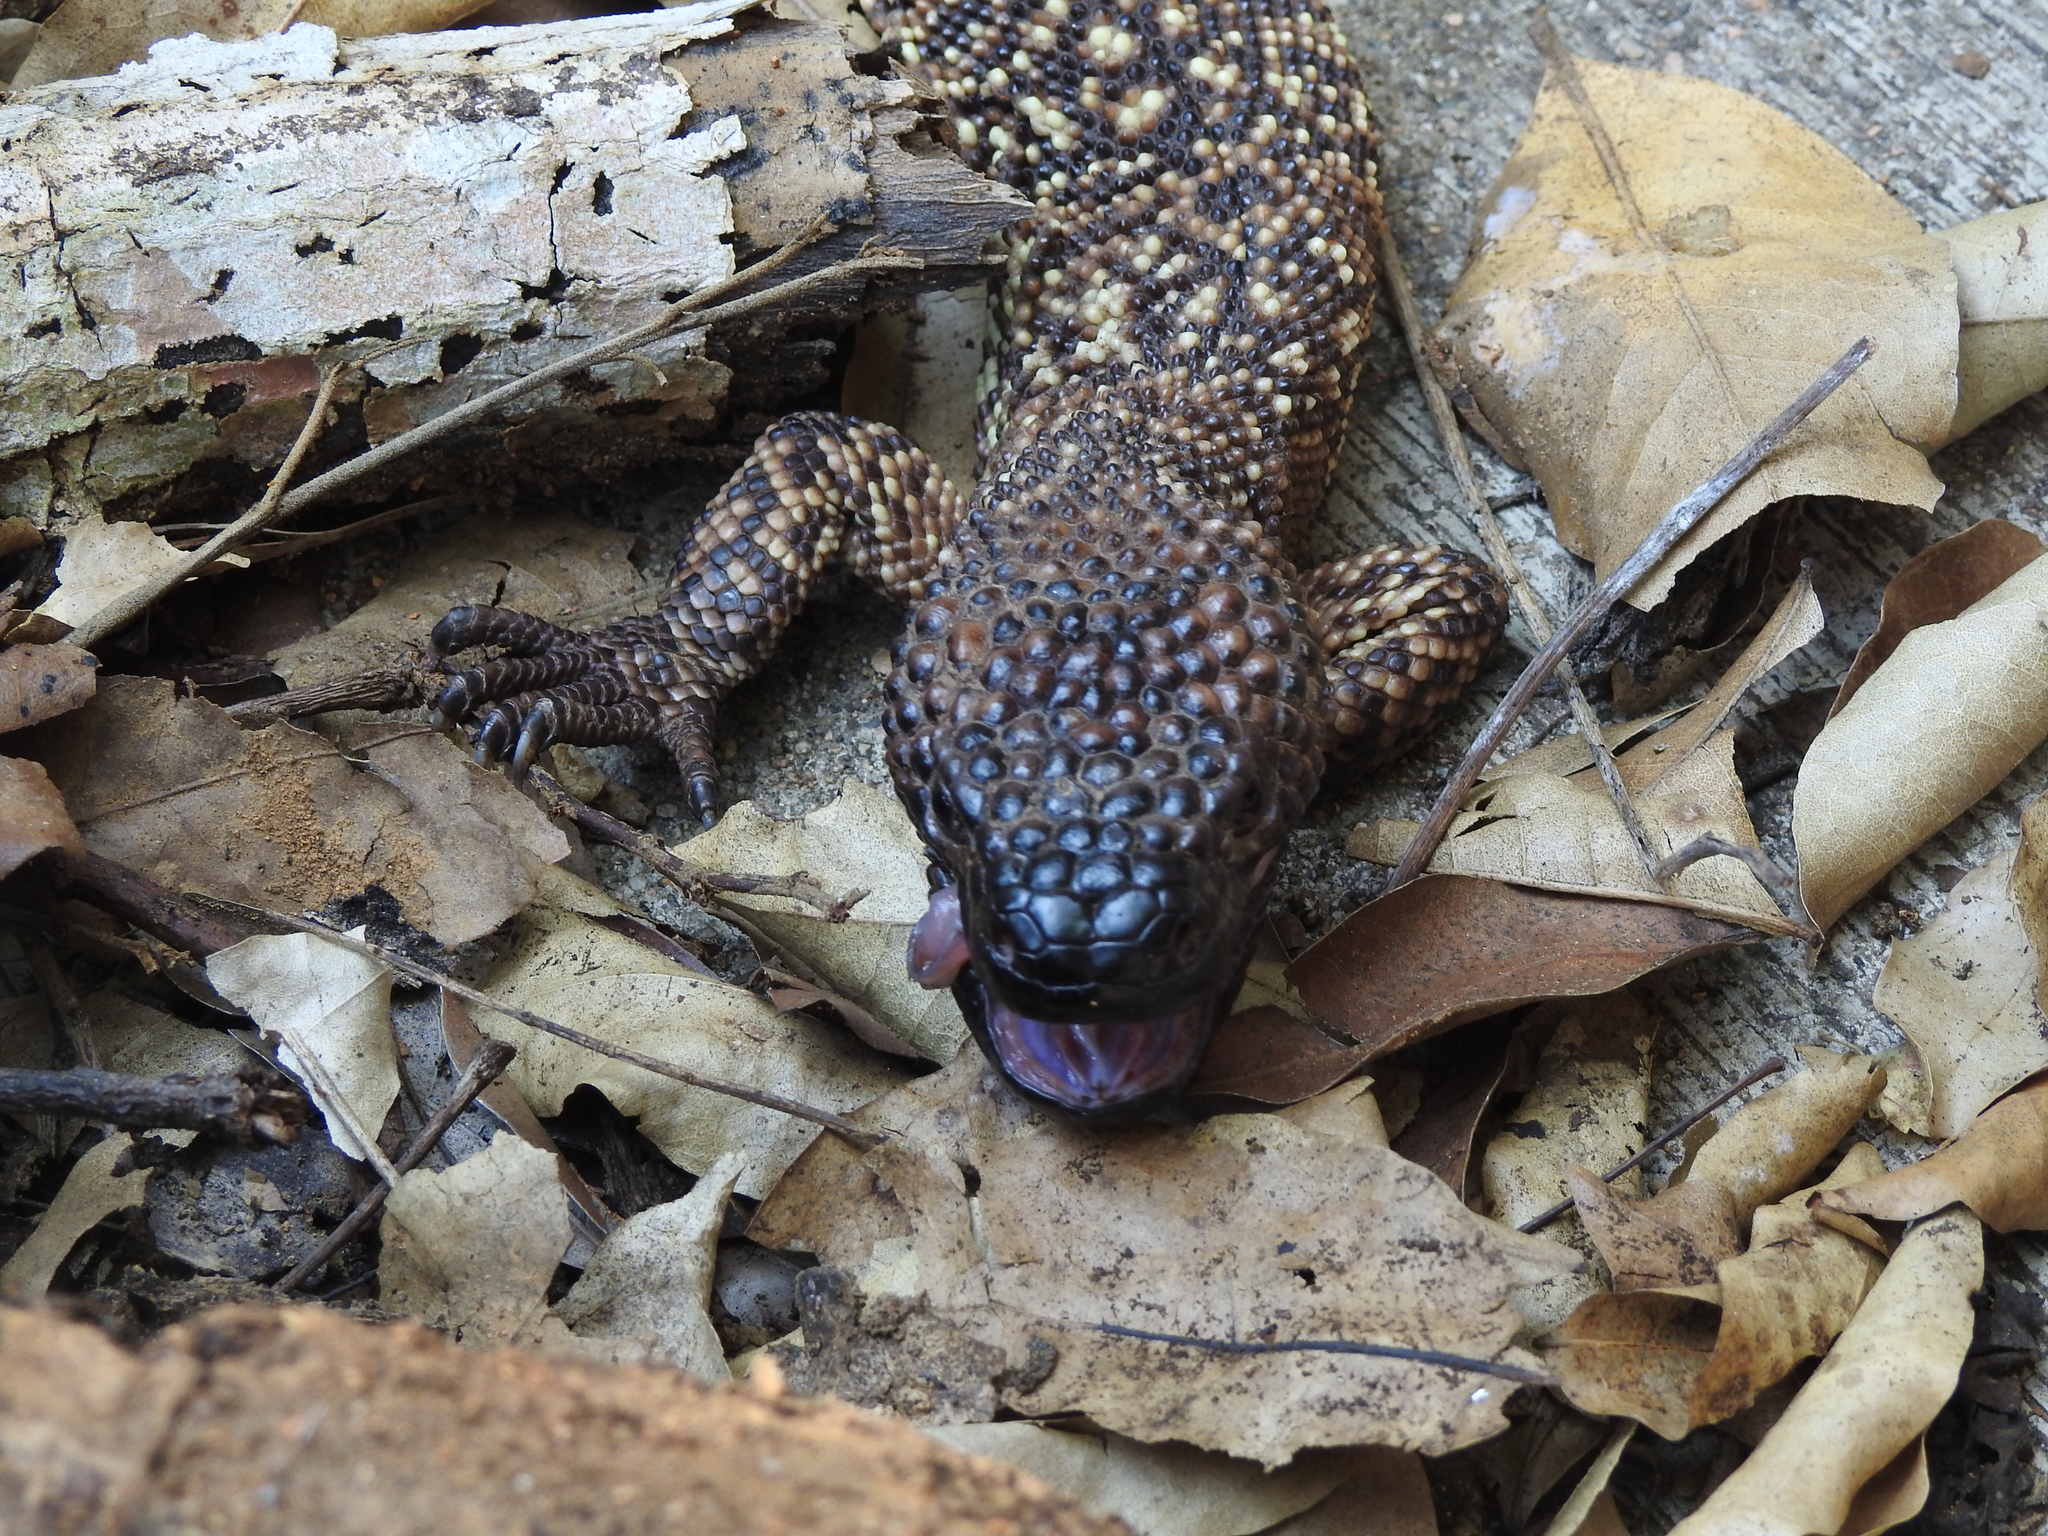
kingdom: Animalia
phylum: Chordata
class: Squamata
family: Helodermatidae
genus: Heloderma
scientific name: Heloderma horridum
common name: Mexican beaded lizard
